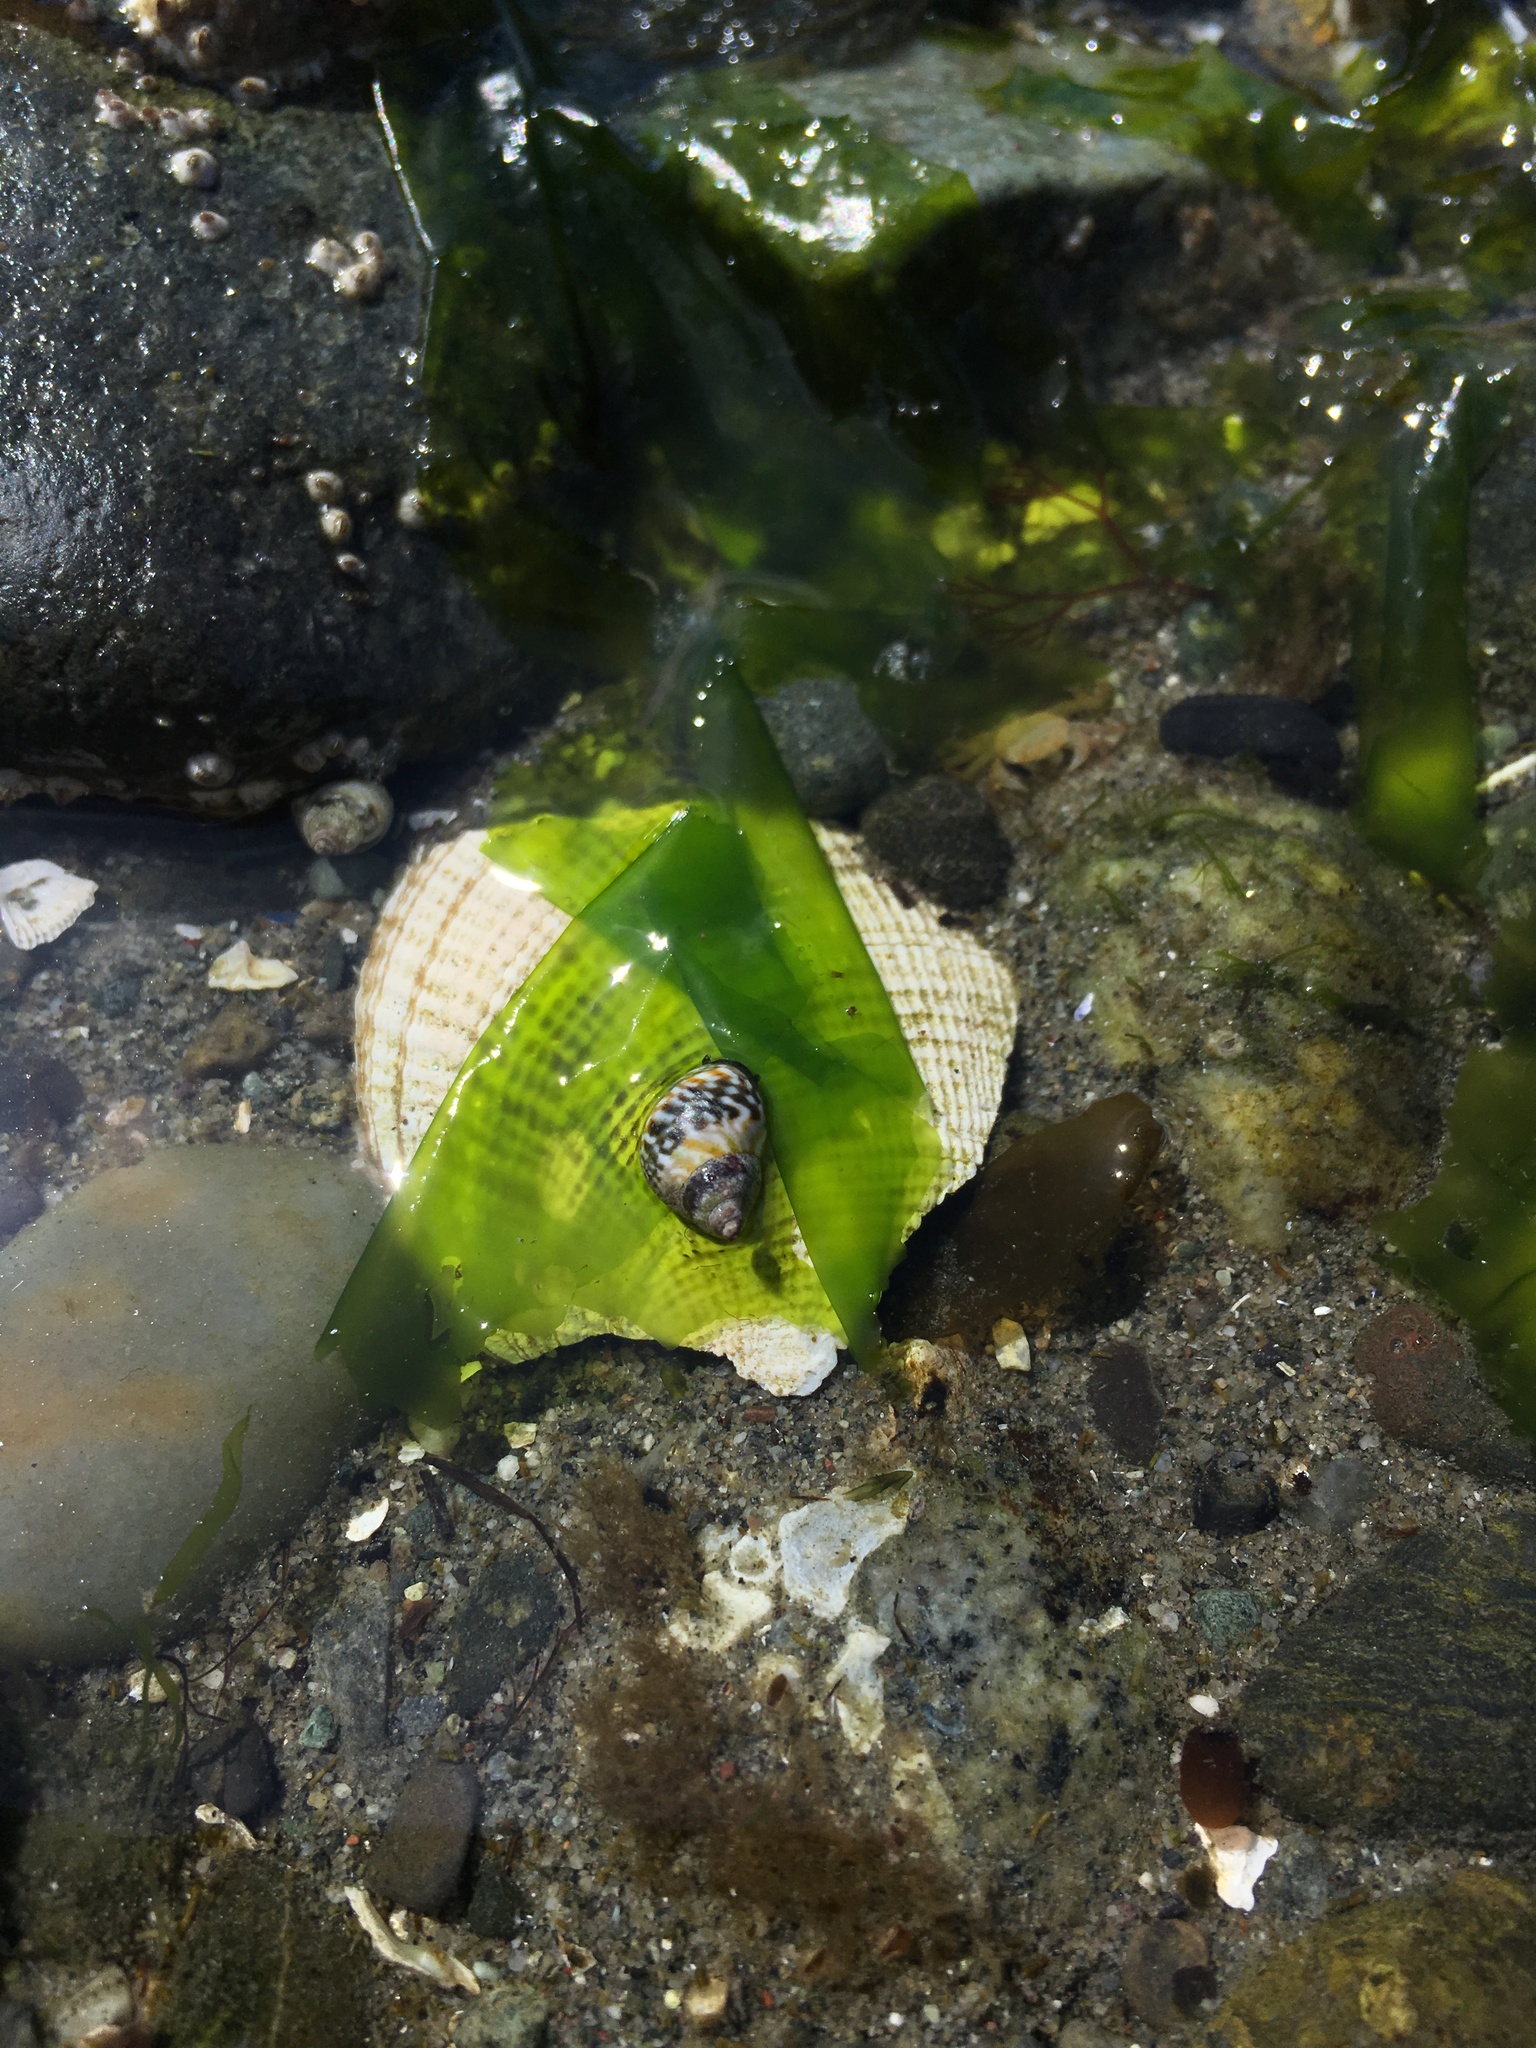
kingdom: Animalia
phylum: Mollusca
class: Gastropoda
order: Littorinimorpha
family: Littorinidae
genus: Littorina
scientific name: Littorina scutulata
